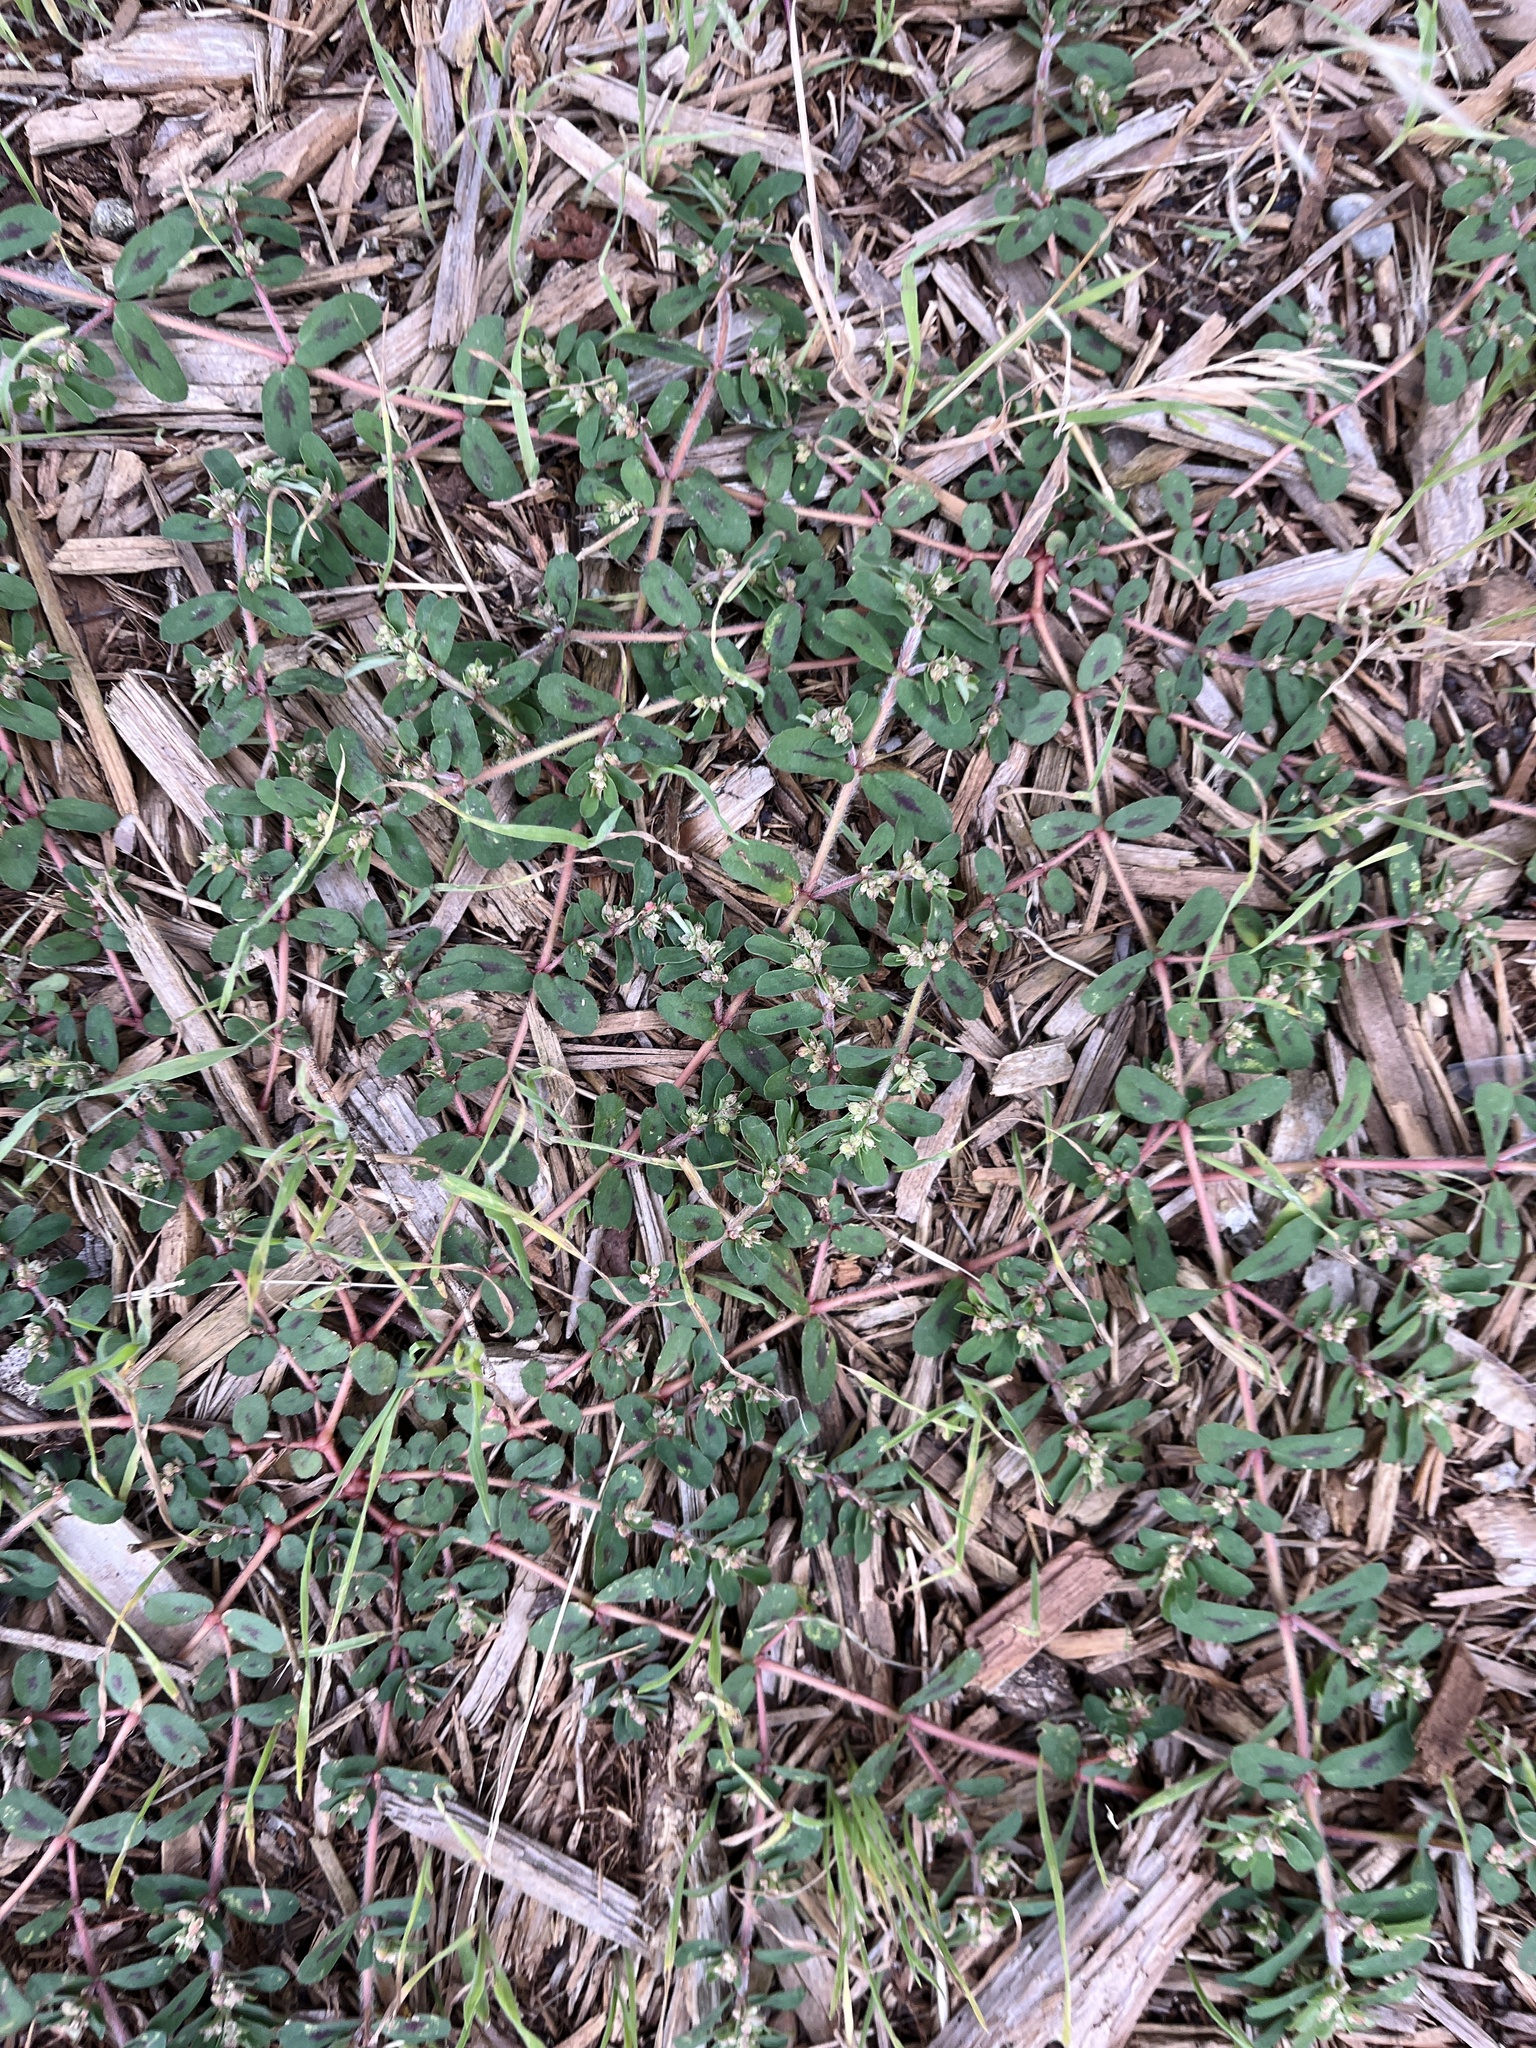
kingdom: Plantae
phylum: Tracheophyta
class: Magnoliopsida
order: Malpighiales
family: Euphorbiaceae
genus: Euphorbia
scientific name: Euphorbia maculata
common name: Spotted spurge
